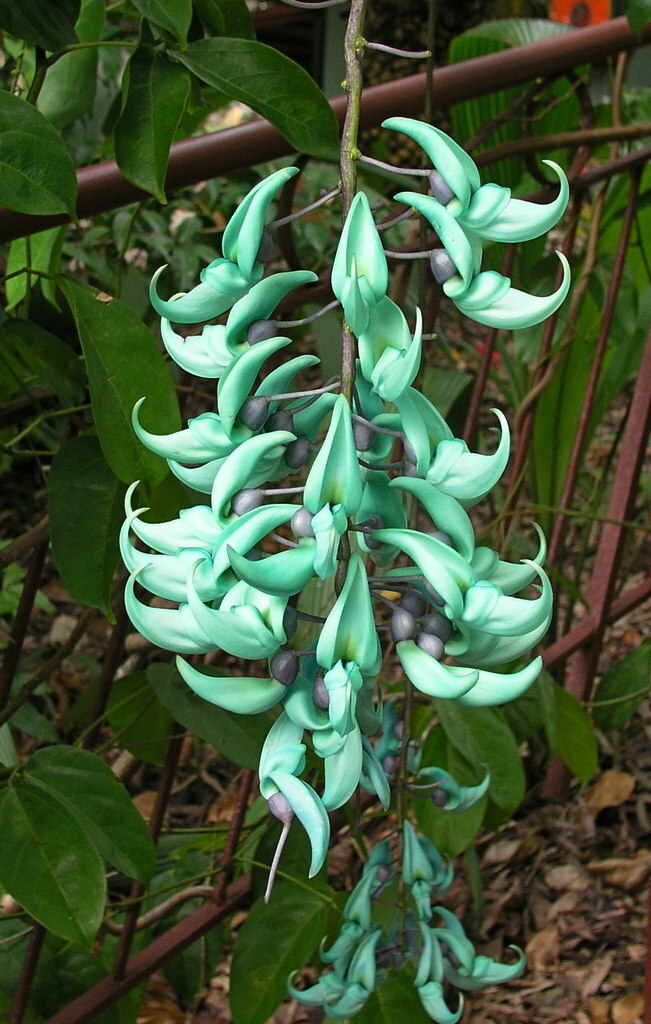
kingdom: Plantae
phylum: Tracheophyta
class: Magnoliopsida
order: Fabales
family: Fabaceae
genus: Strongylodon
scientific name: Strongylodon macrobotrys
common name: Jadevine
